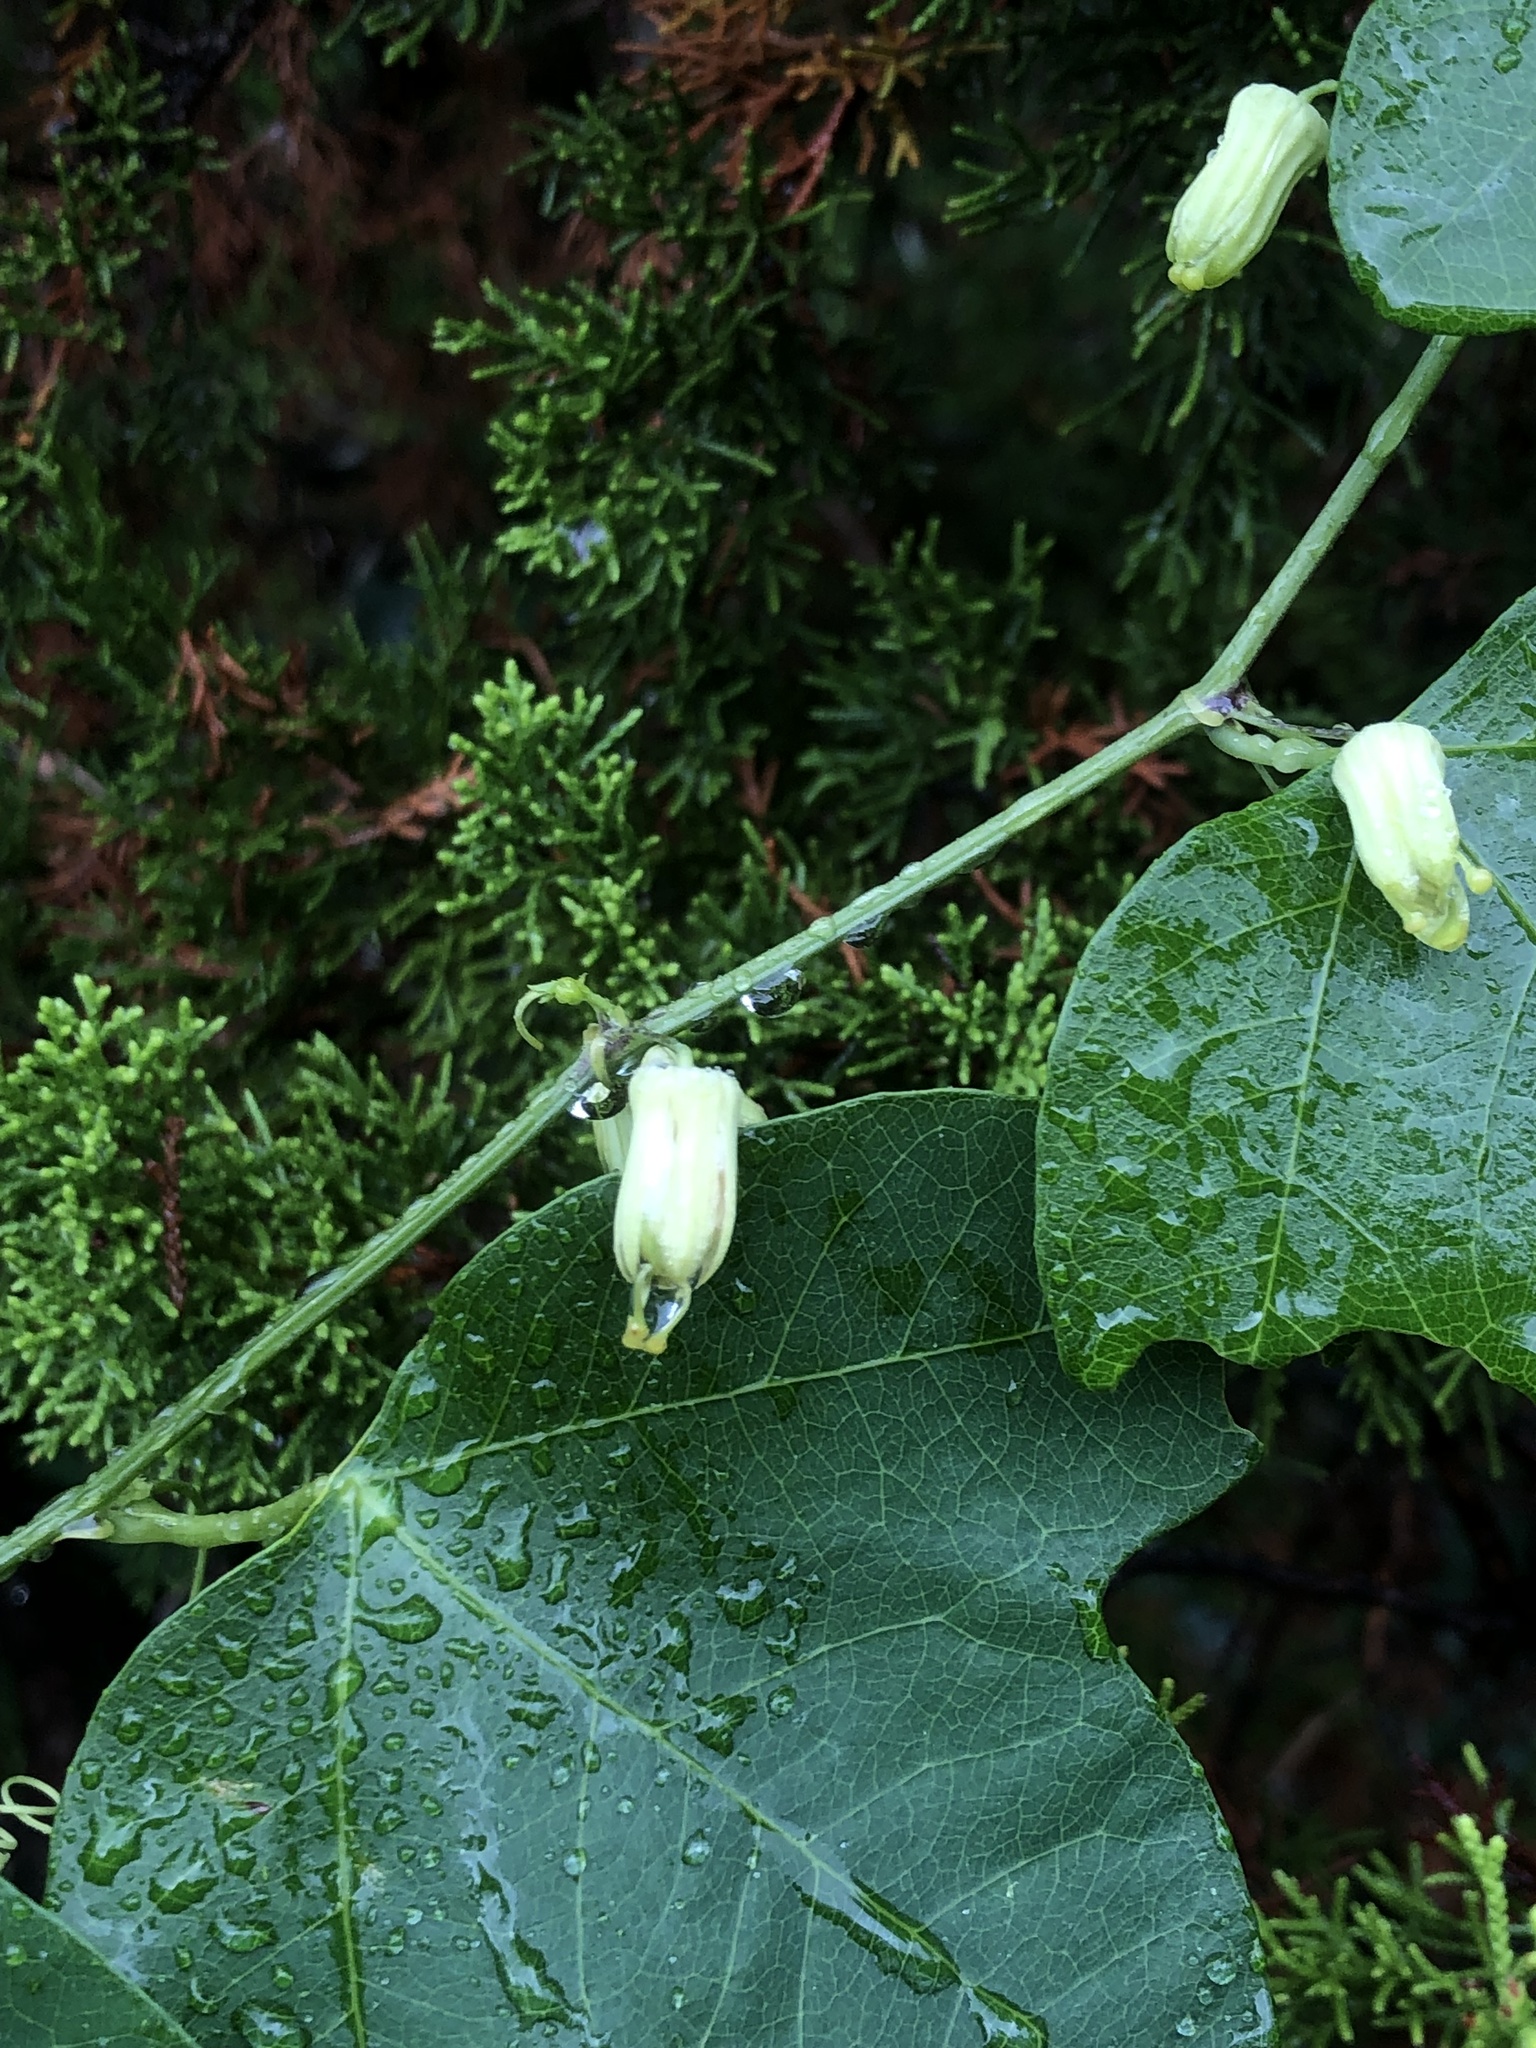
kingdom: Plantae
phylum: Tracheophyta
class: Magnoliopsida
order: Malpighiales
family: Passifloraceae
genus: Passiflora
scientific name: Passiflora lutea
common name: Yellow passionflower
